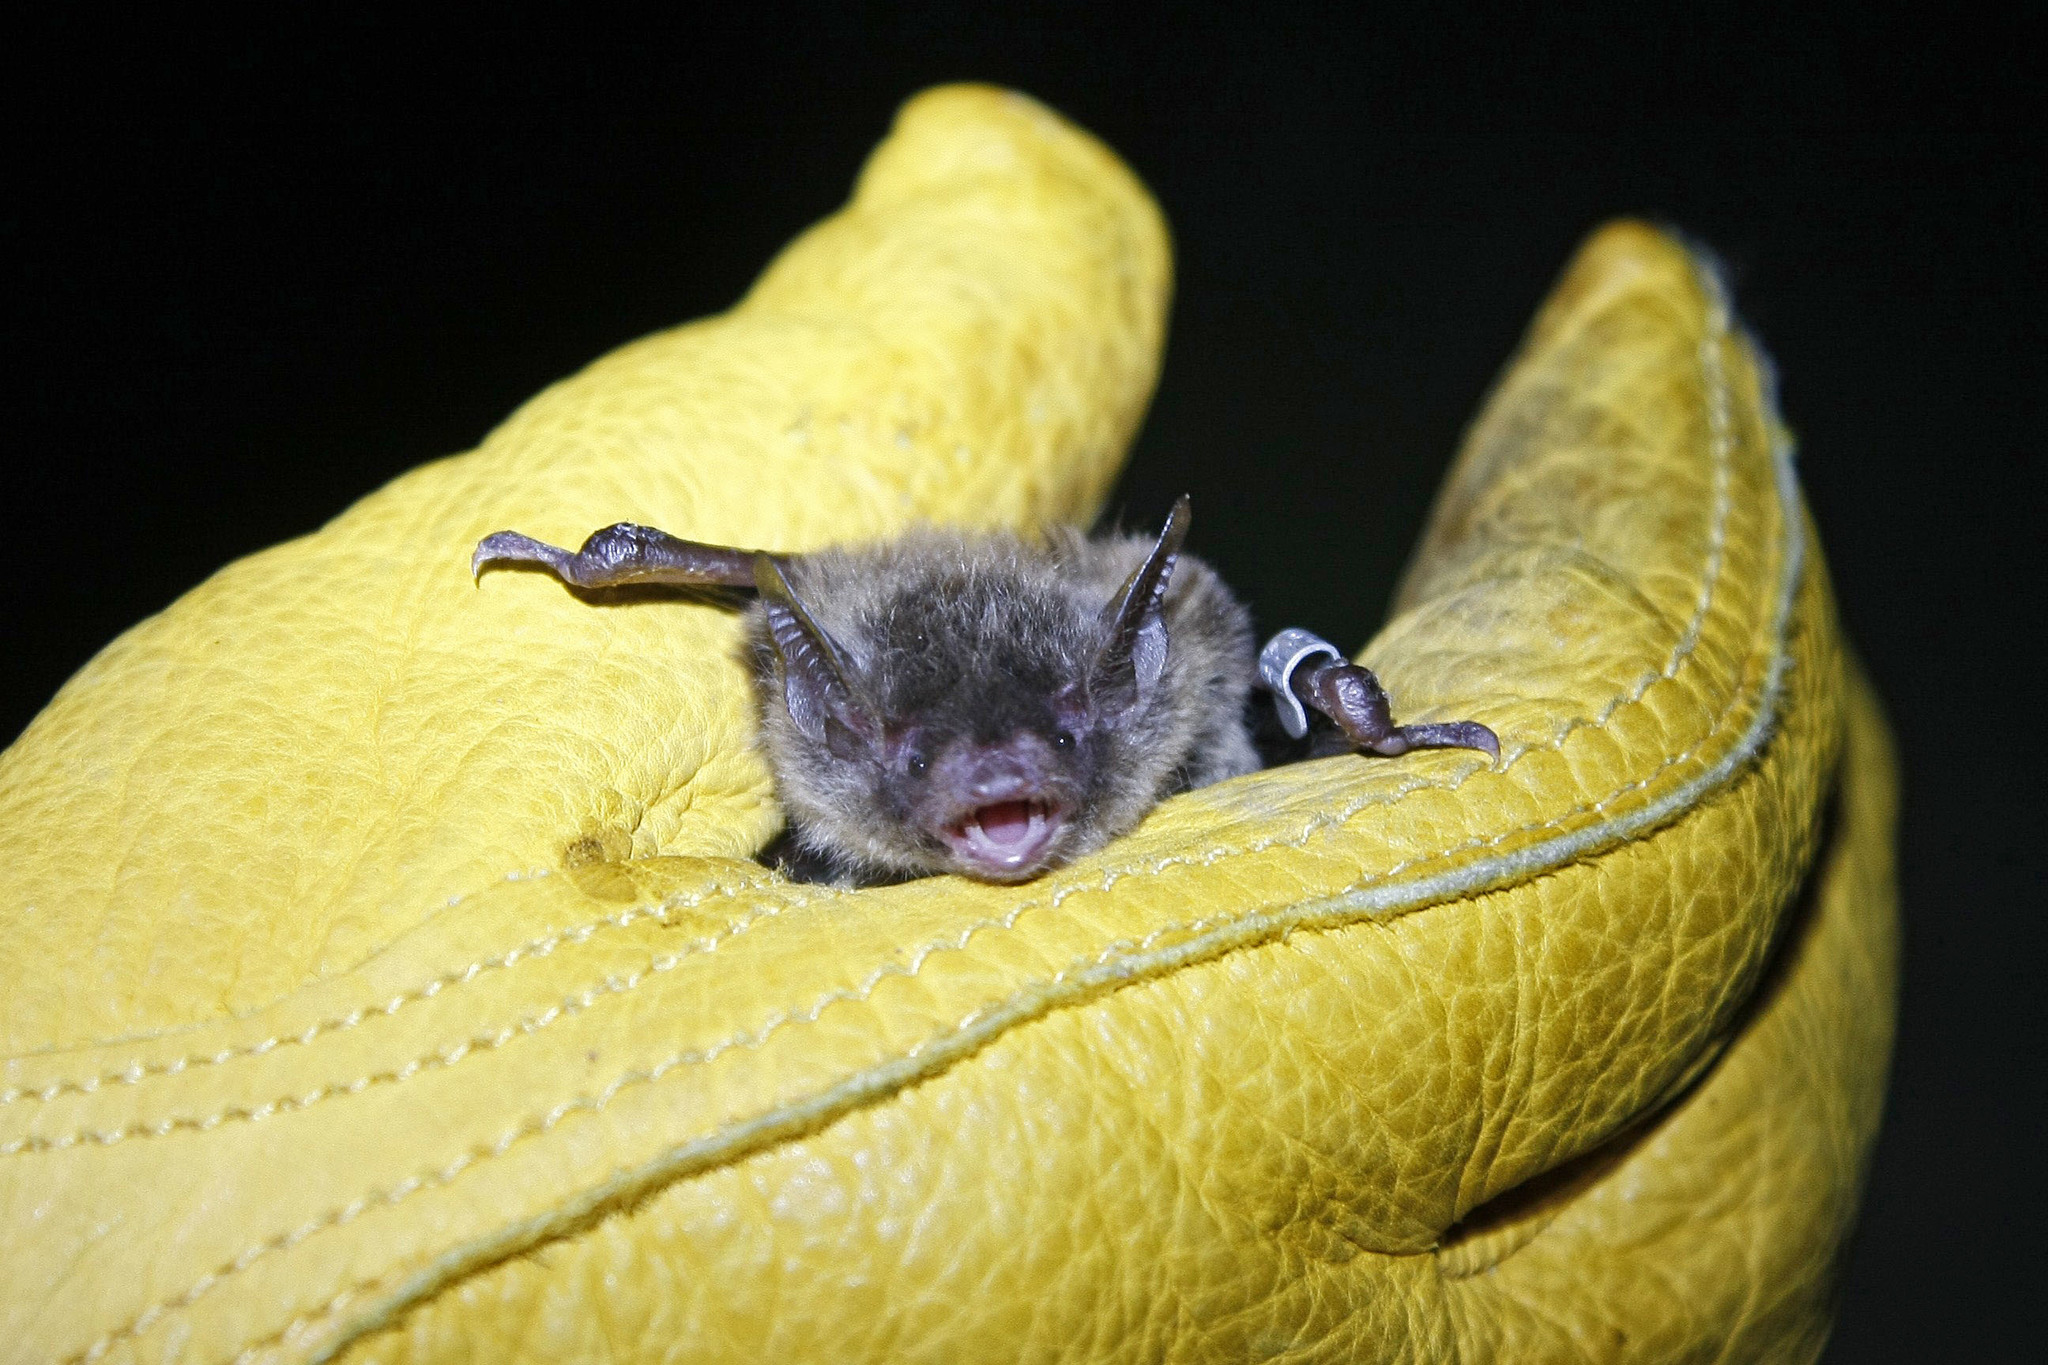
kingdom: Animalia
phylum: Chordata
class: Mammalia
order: Chiroptera
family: Vespertilionidae
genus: Myotis
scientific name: Myotis lucifugus
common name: Little brown bat
